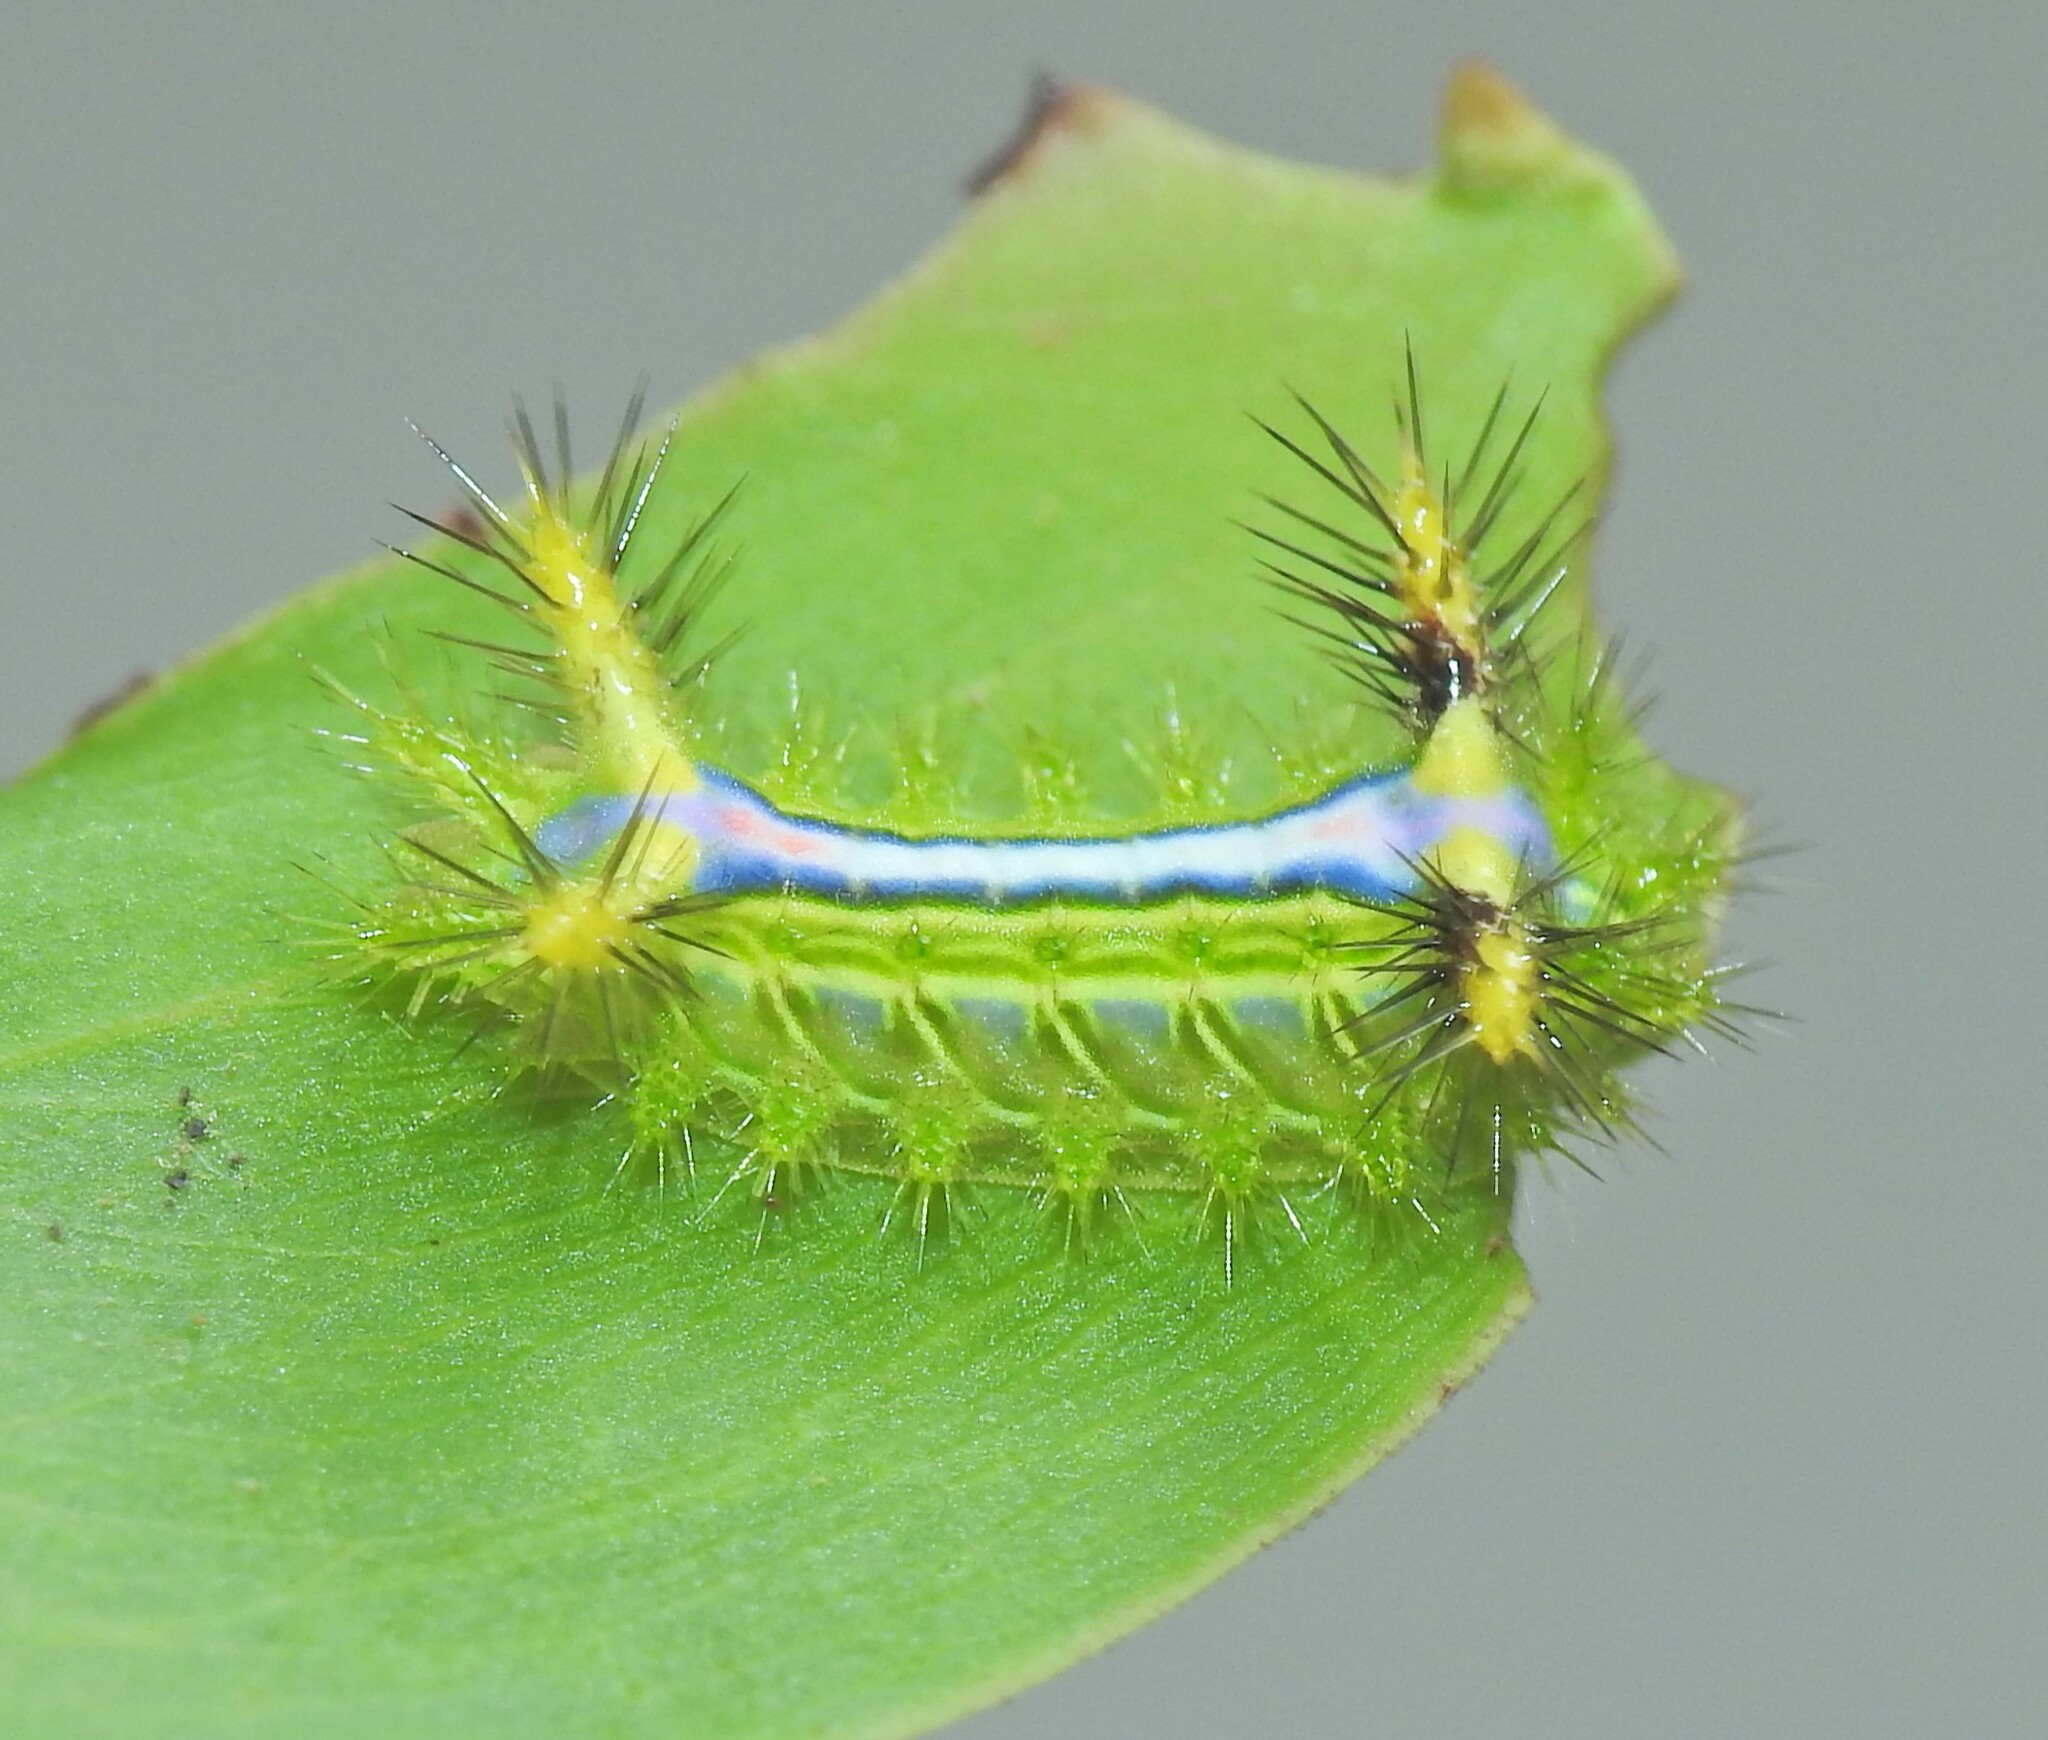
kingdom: Animalia
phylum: Arthropoda
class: Insecta
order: Lepidoptera
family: Limacodidae
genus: Anaxidia
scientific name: Anaxidia lozogramma
